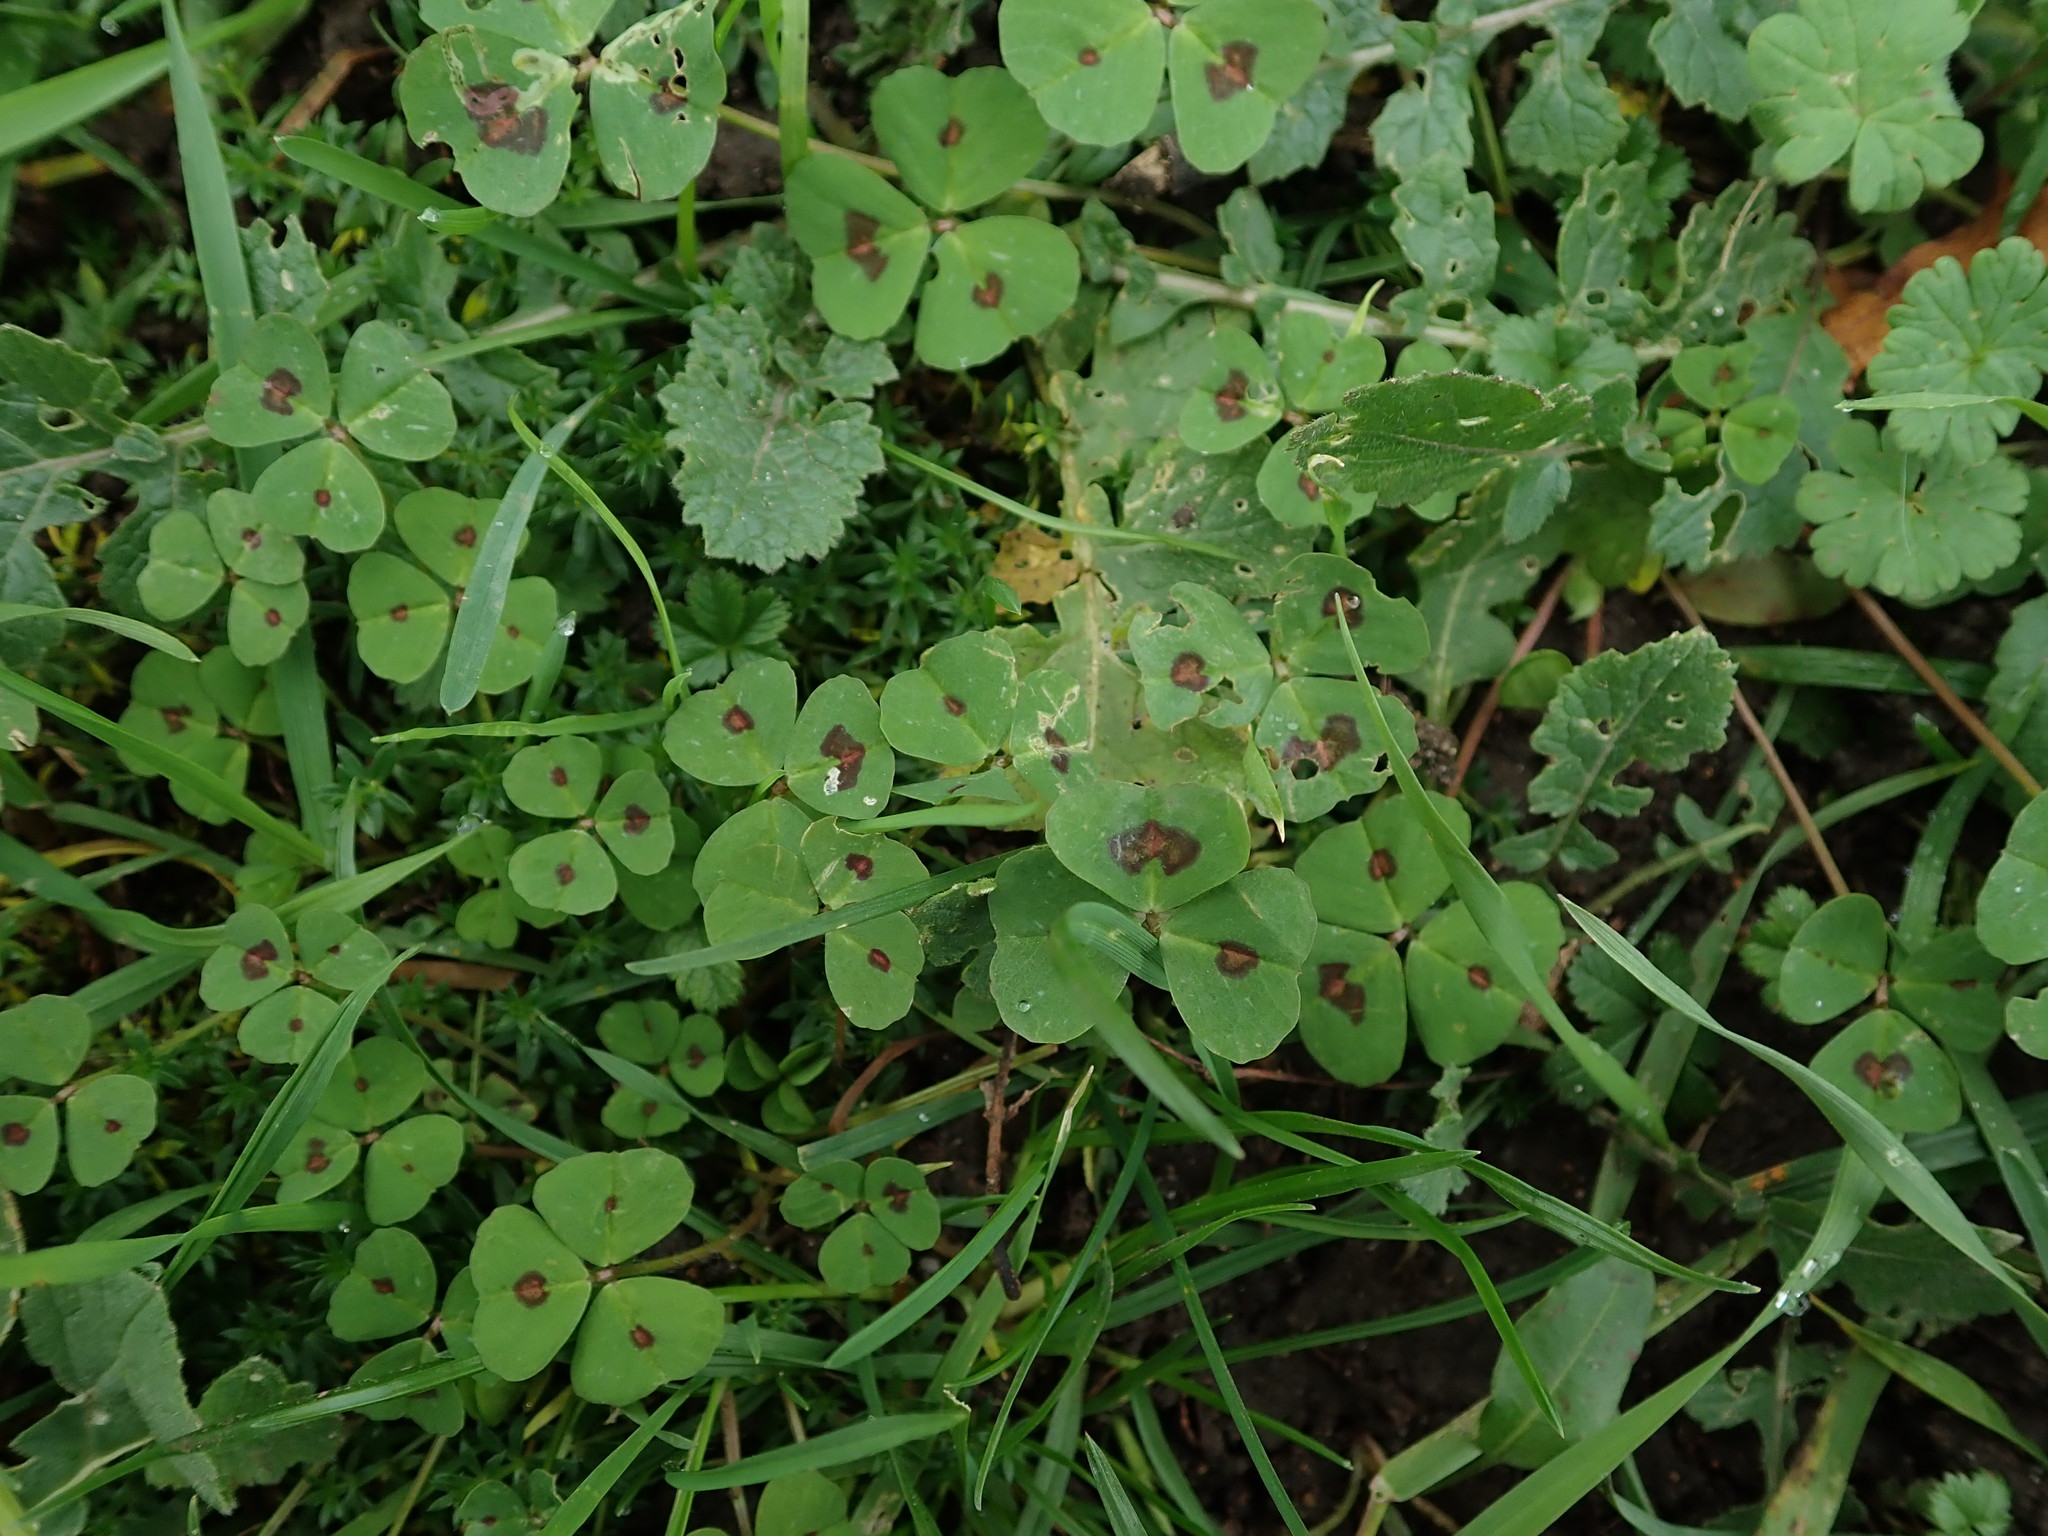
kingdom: Plantae
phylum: Tracheophyta
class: Magnoliopsida
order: Fabales
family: Fabaceae
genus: Medicago
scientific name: Medicago arabica
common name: Spotted medick
